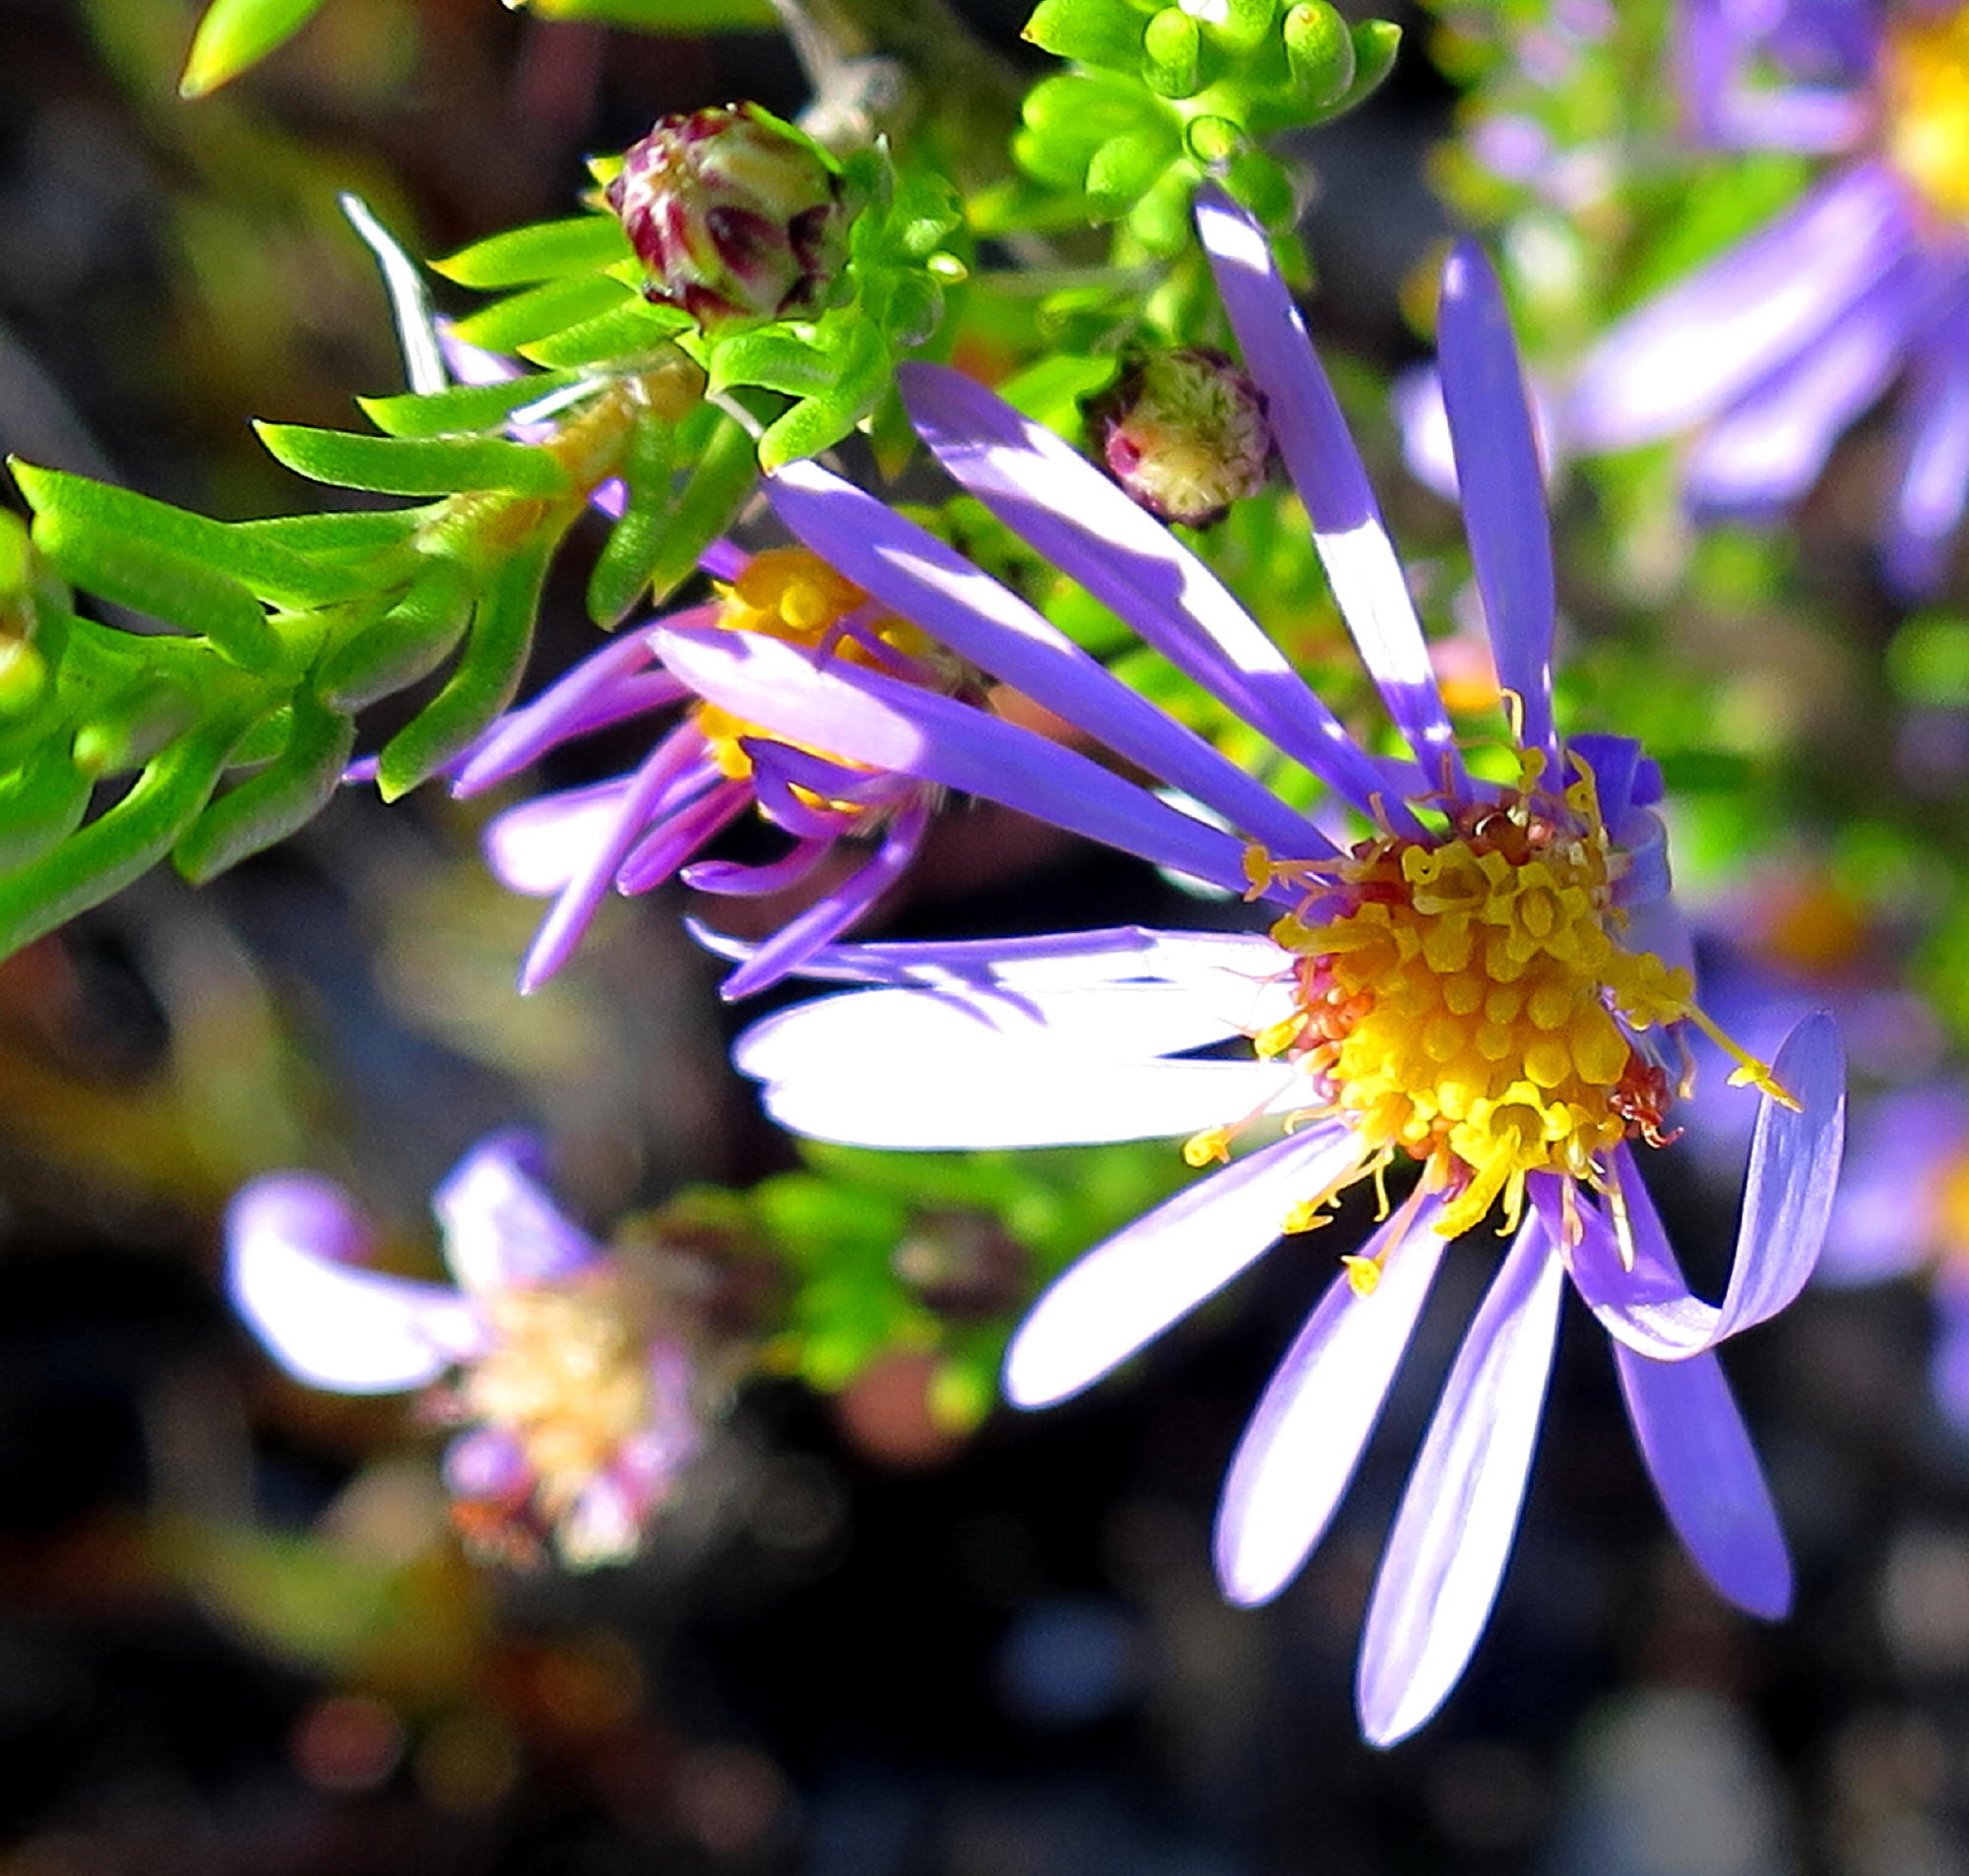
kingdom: Plantae
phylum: Tracheophyta
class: Magnoliopsida
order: Asterales
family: Asteraceae
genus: Felicia
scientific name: Felicia filifolia
